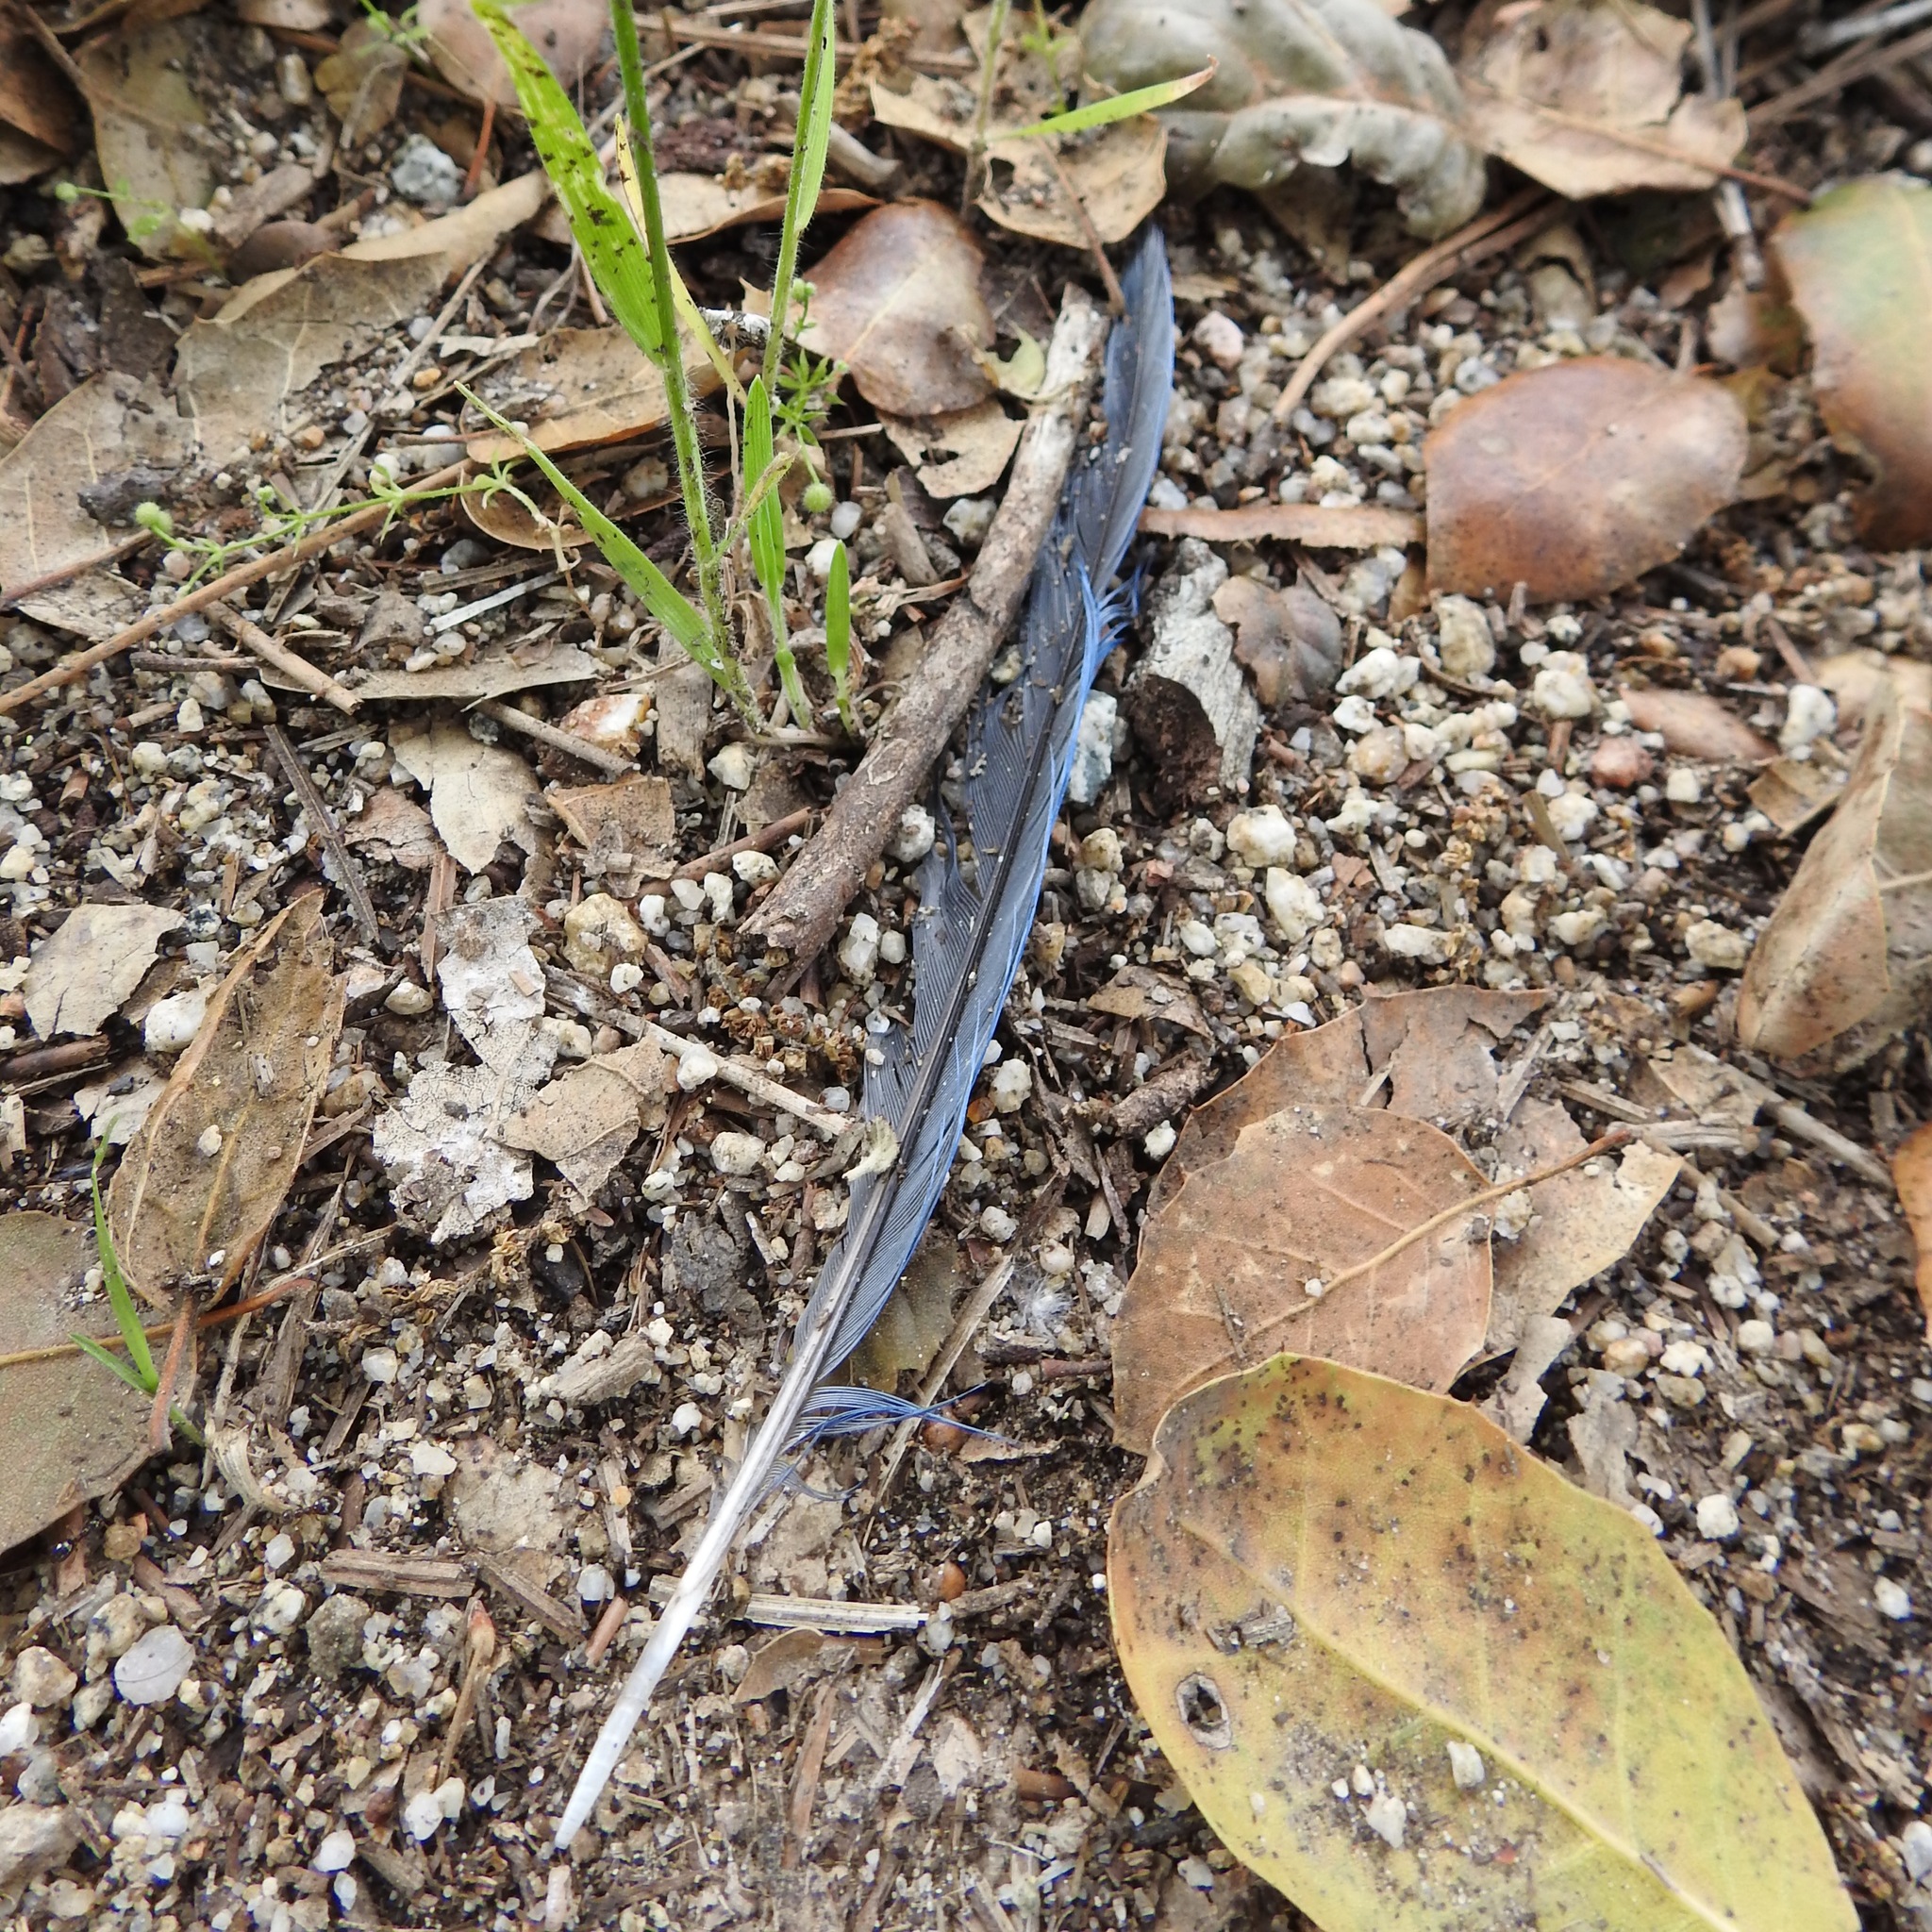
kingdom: Animalia
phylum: Chordata
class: Aves
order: Passeriformes
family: Corvidae
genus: Aphelocoma
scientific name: Aphelocoma californica
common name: California scrub-jay
